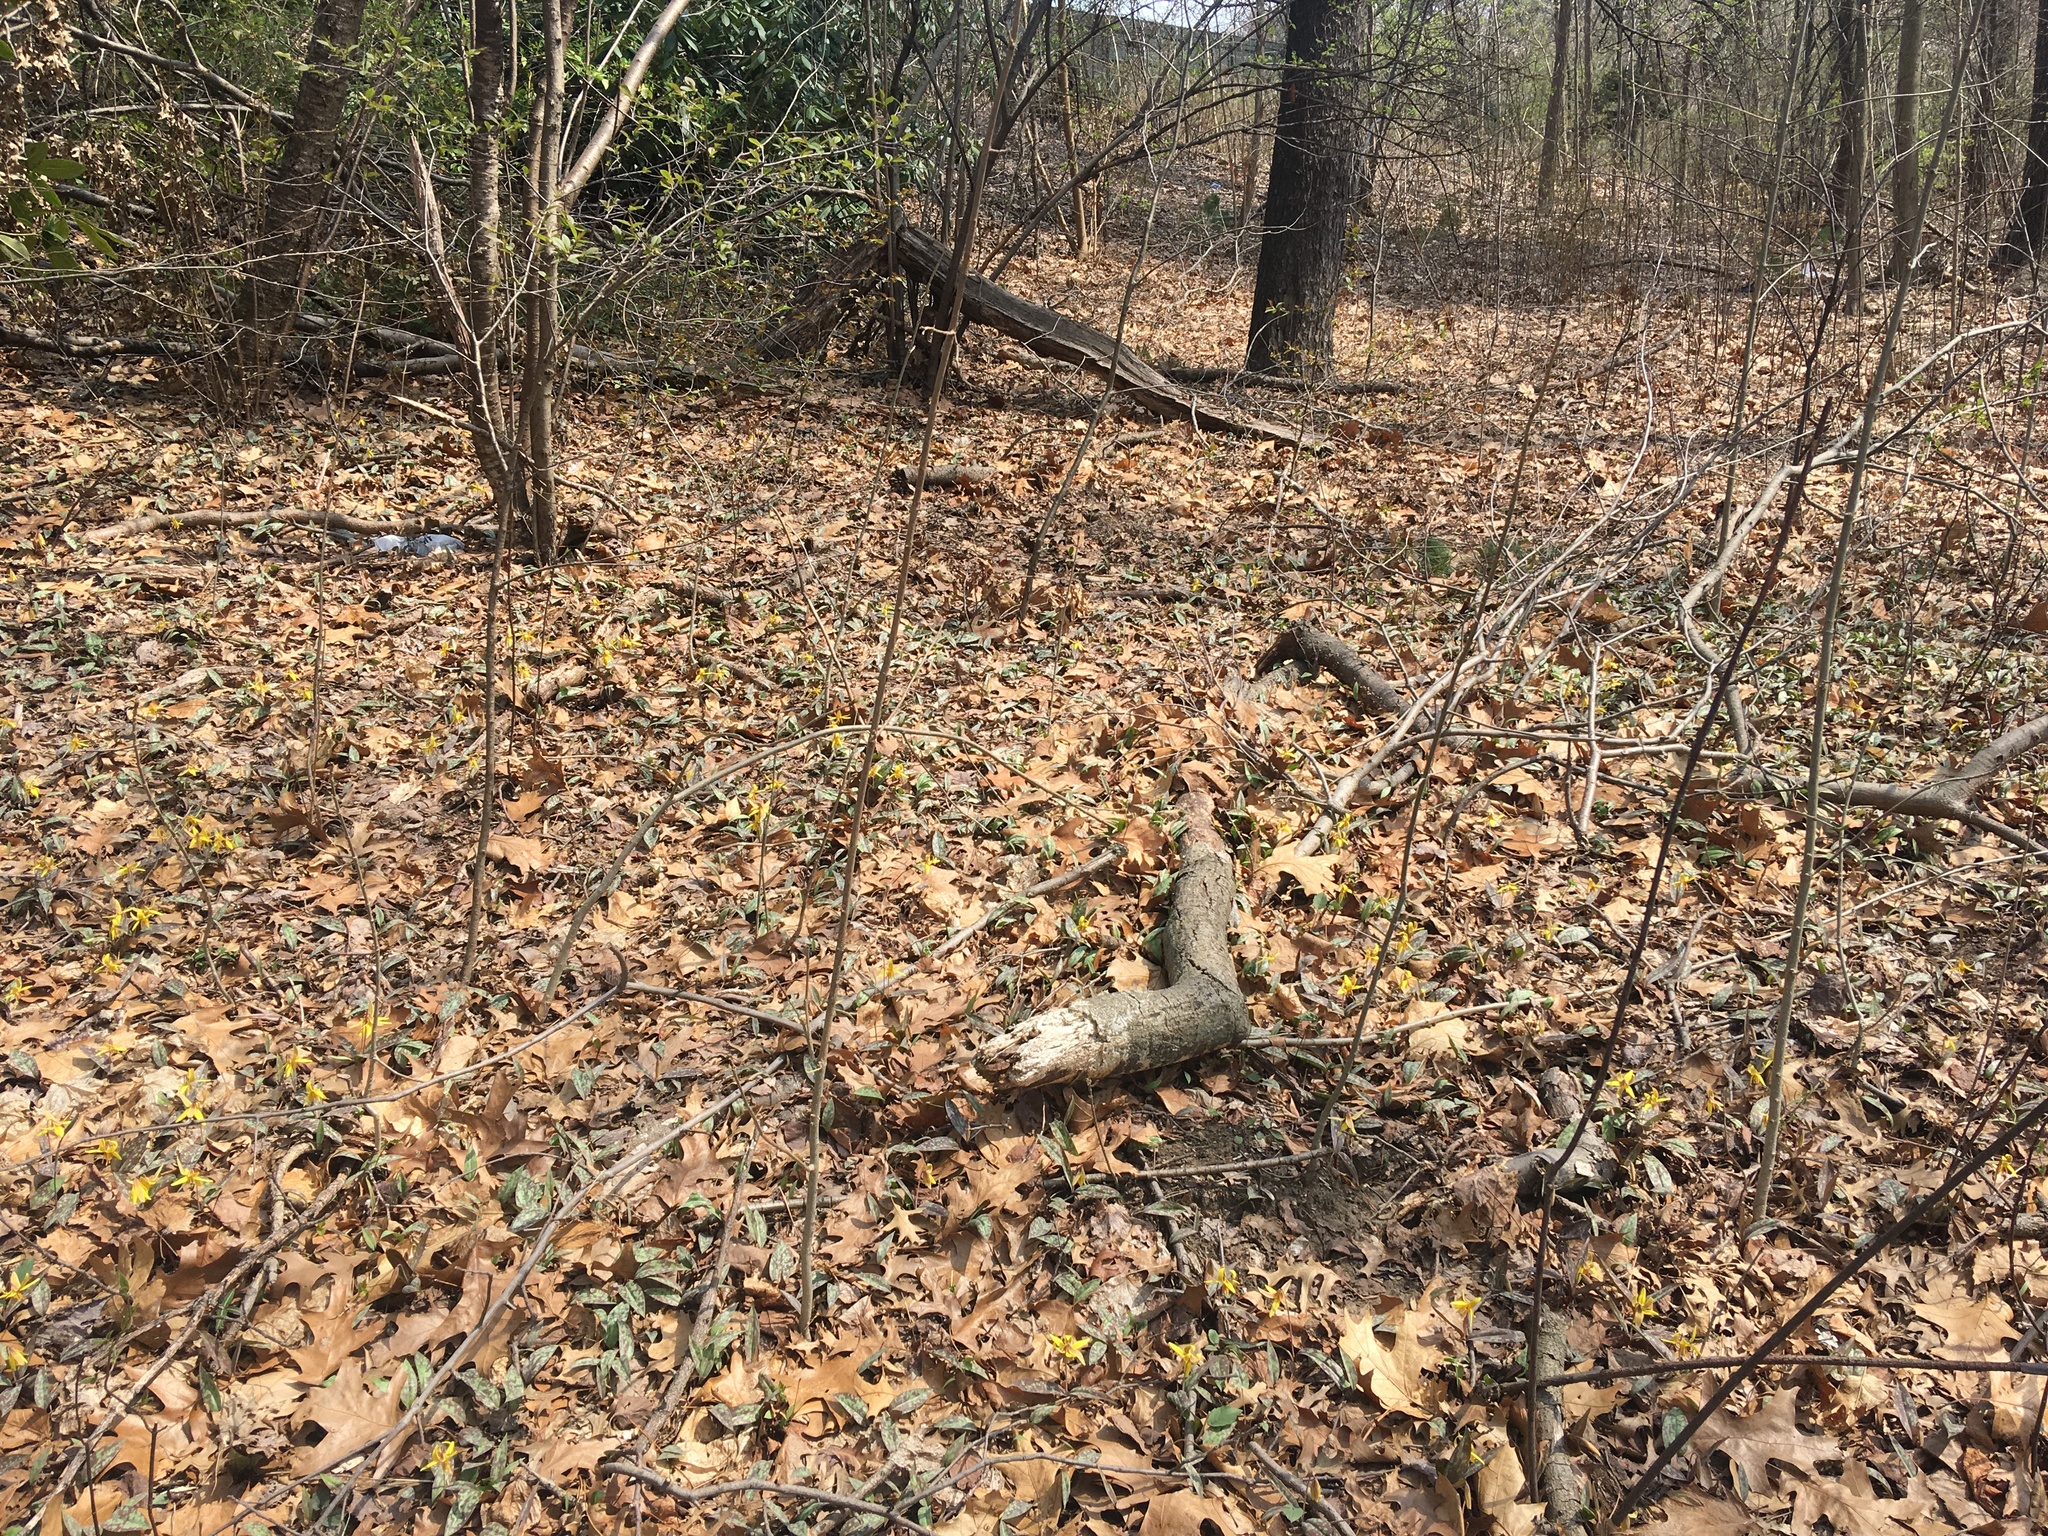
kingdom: Plantae
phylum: Tracheophyta
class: Liliopsida
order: Liliales
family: Liliaceae
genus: Erythronium
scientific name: Erythronium americanum
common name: Yellow adder's-tongue
